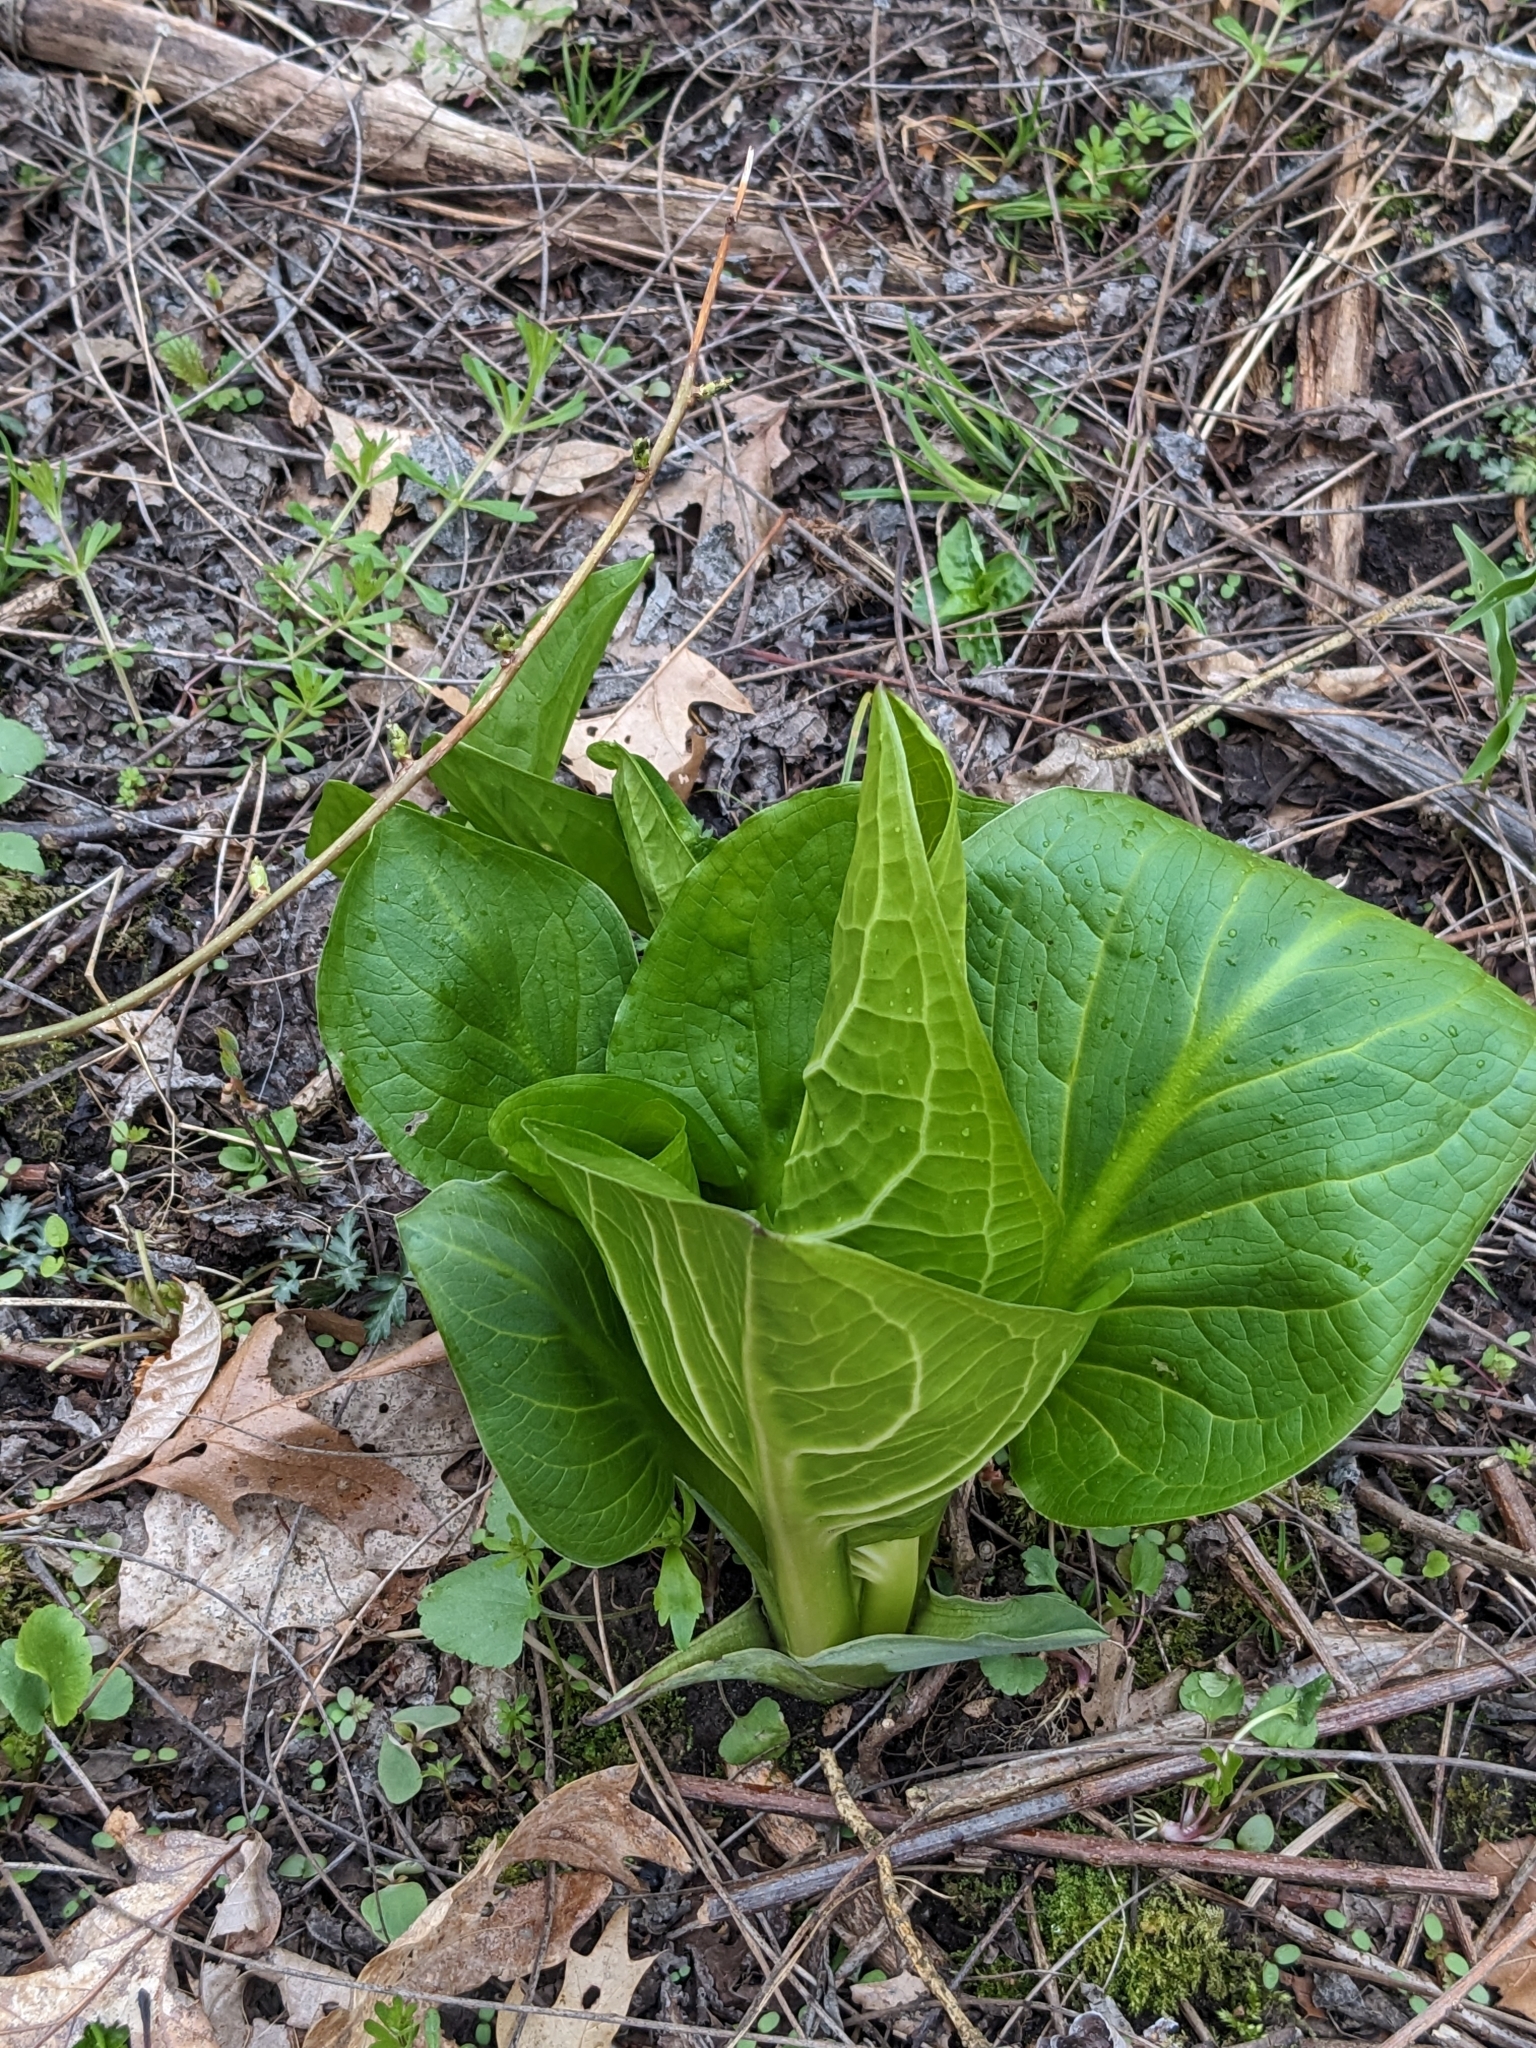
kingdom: Plantae
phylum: Tracheophyta
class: Liliopsida
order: Alismatales
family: Araceae
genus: Symplocarpus
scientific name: Symplocarpus foetidus
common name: Eastern skunk cabbage
